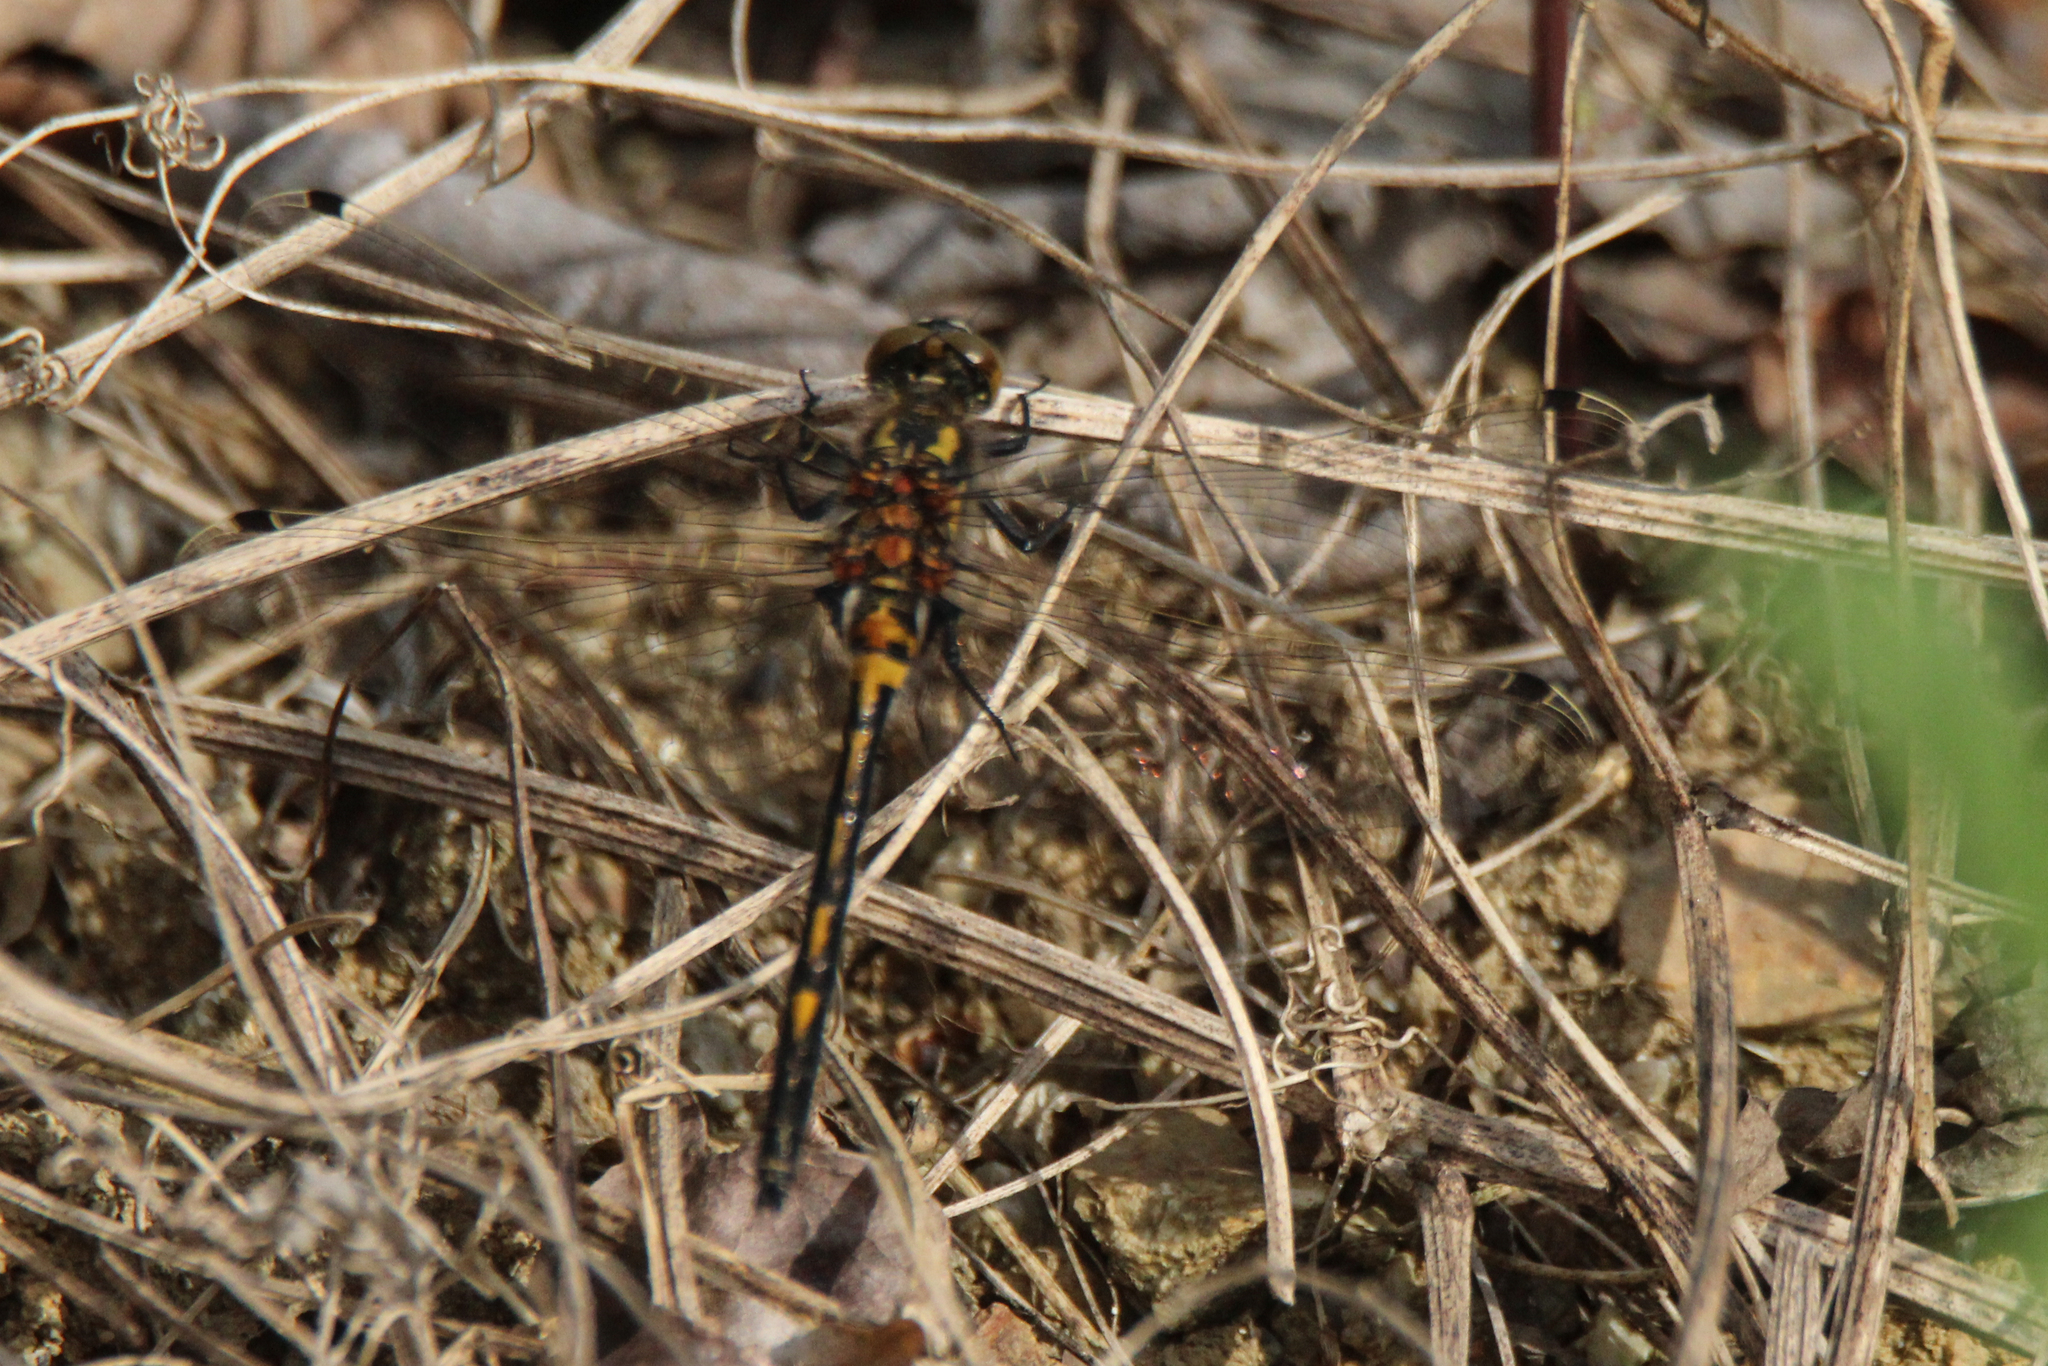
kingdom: Animalia
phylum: Arthropoda
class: Insecta
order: Odonata
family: Libellulidae
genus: Leucorrhinia
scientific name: Leucorrhinia intermedia
